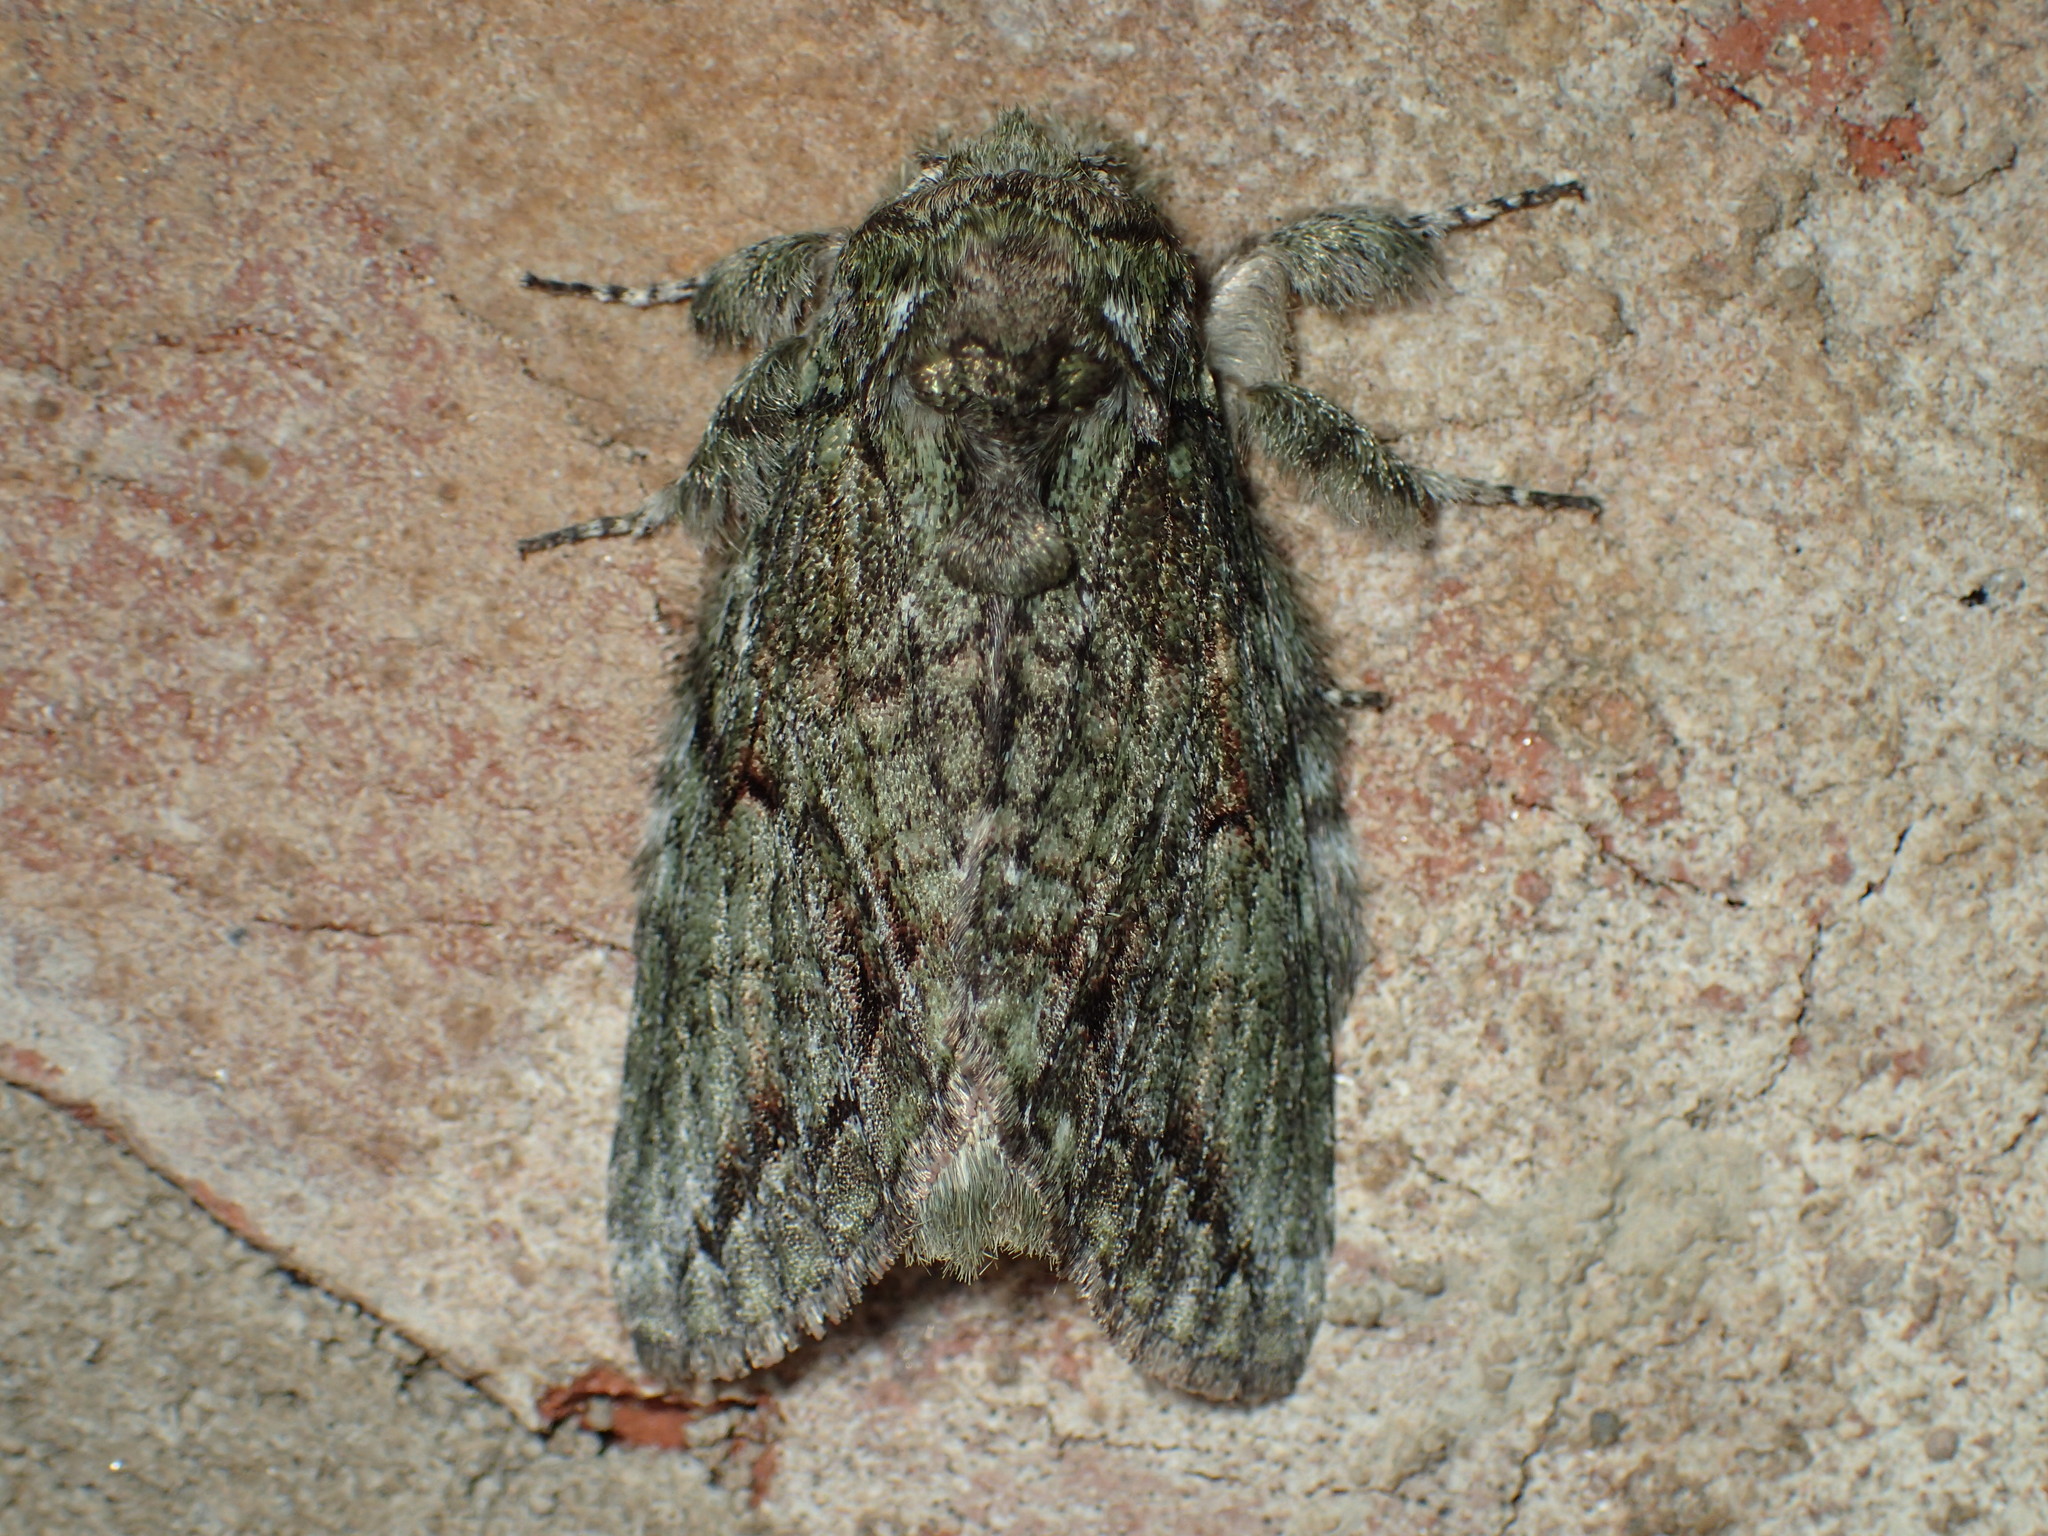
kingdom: Animalia
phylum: Arthropoda
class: Insecta
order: Lepidoptera
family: Notodontidae
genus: Heterocampa
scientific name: Heterocampa
